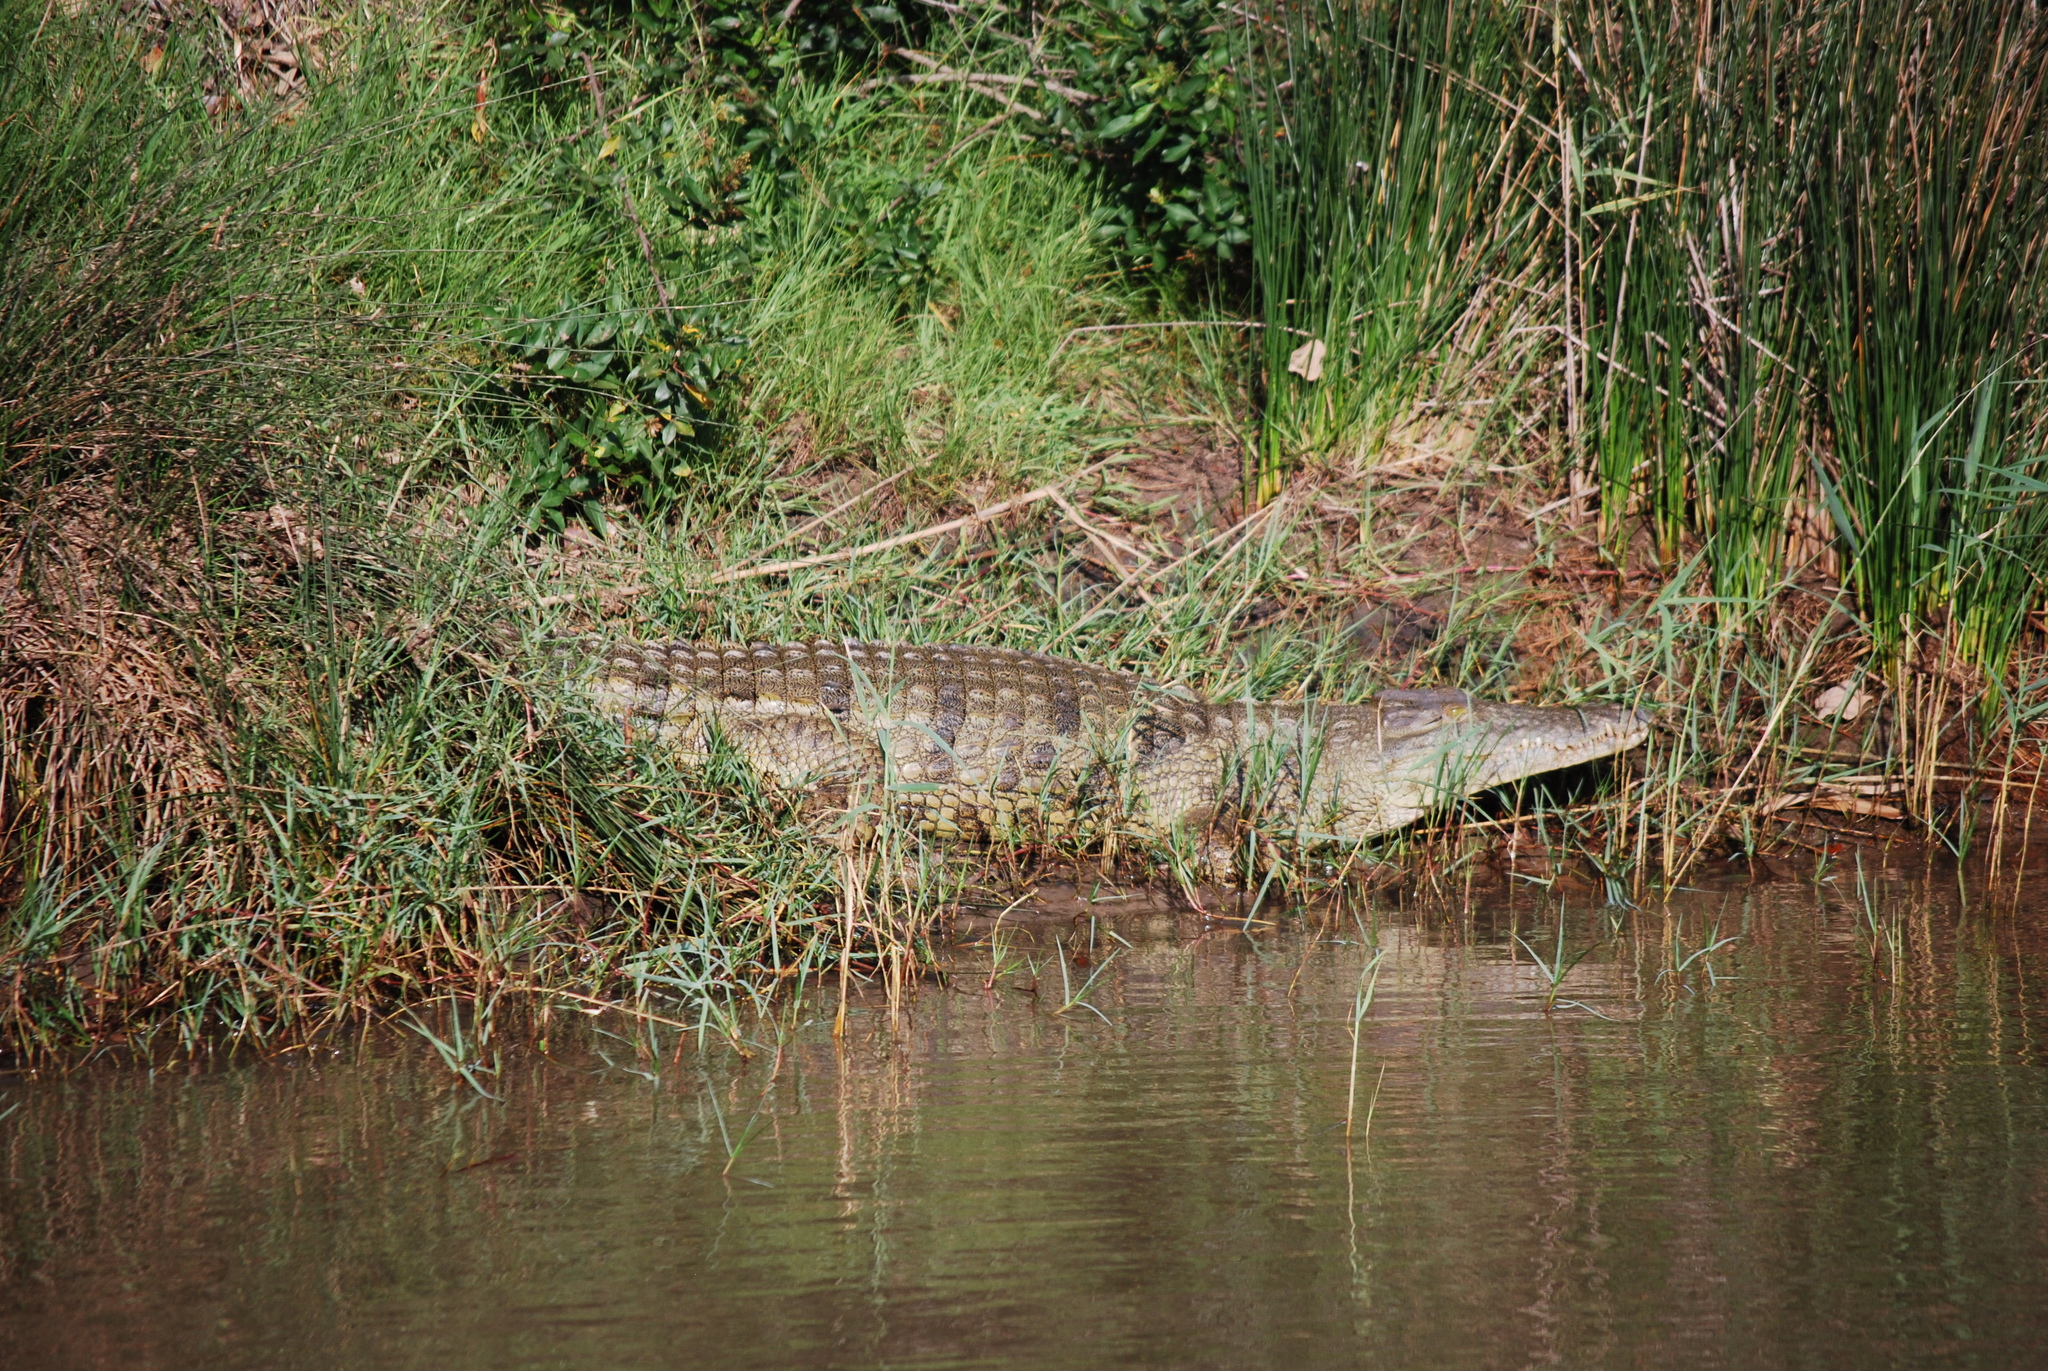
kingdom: Animalia
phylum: Chordata
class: Crocodylia
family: Crocodylidae
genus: Crocodylus
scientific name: Crocodylus niloticus
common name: Nile crocodile
